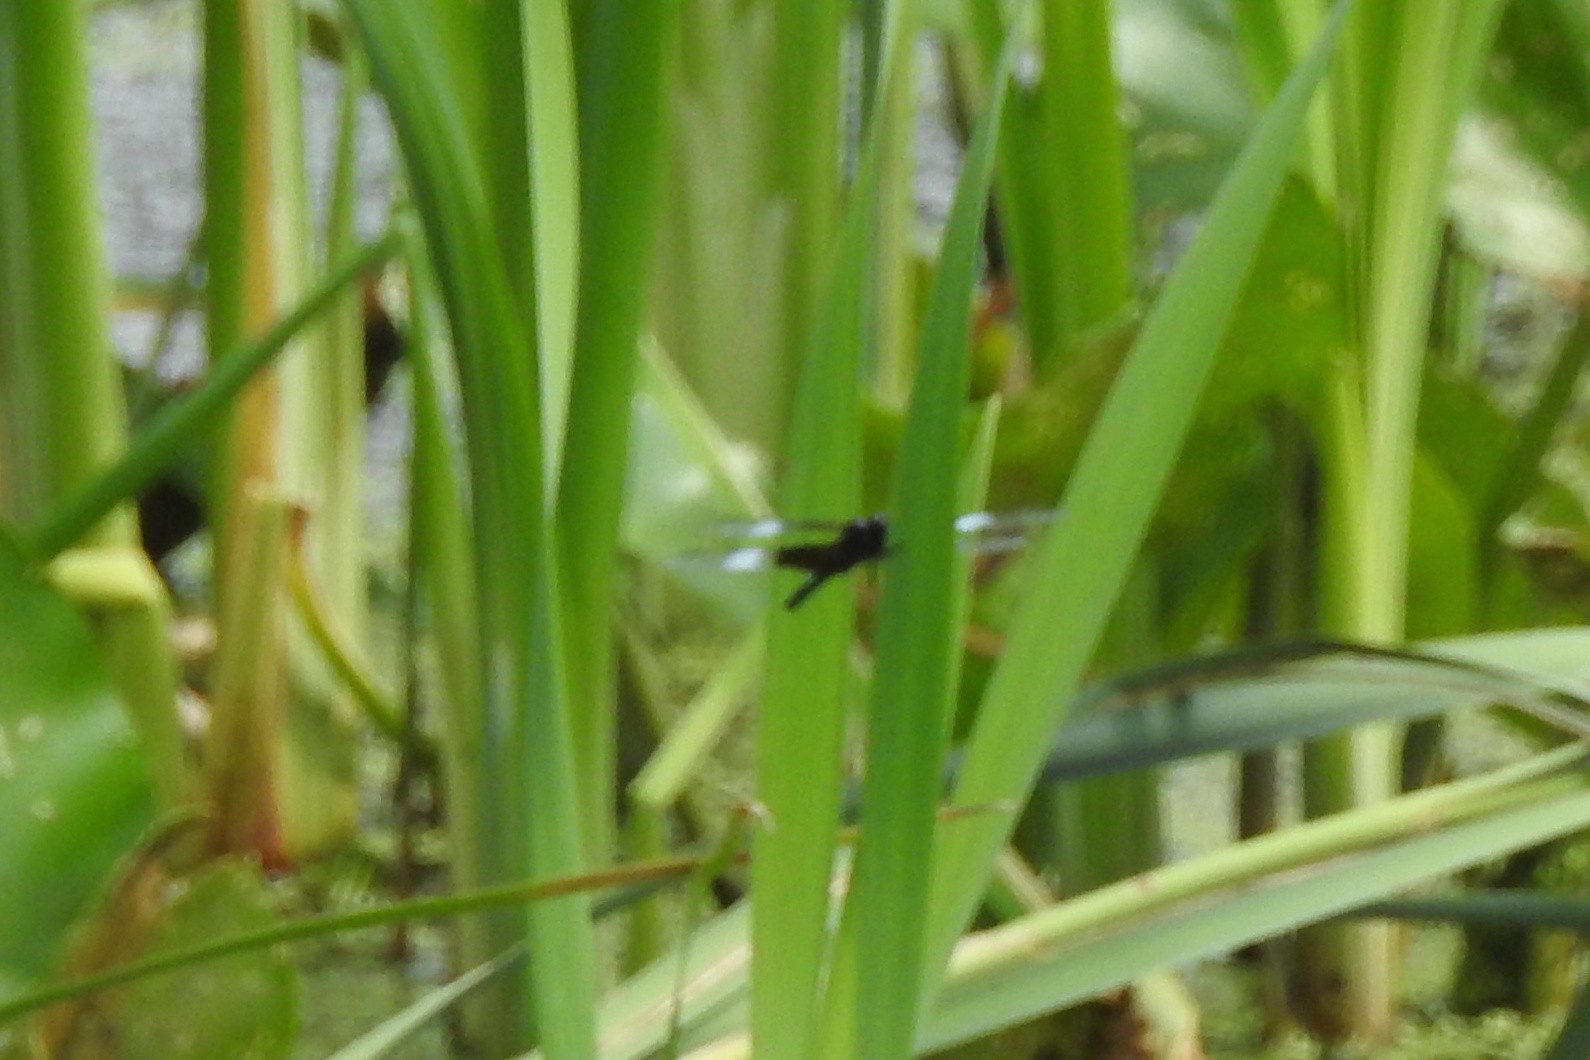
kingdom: Animalia
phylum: Arthropoda
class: Insecta
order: Odonata
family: Libellulidae
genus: Libellula
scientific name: Libellula luctuosa
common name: Widow skimmer
